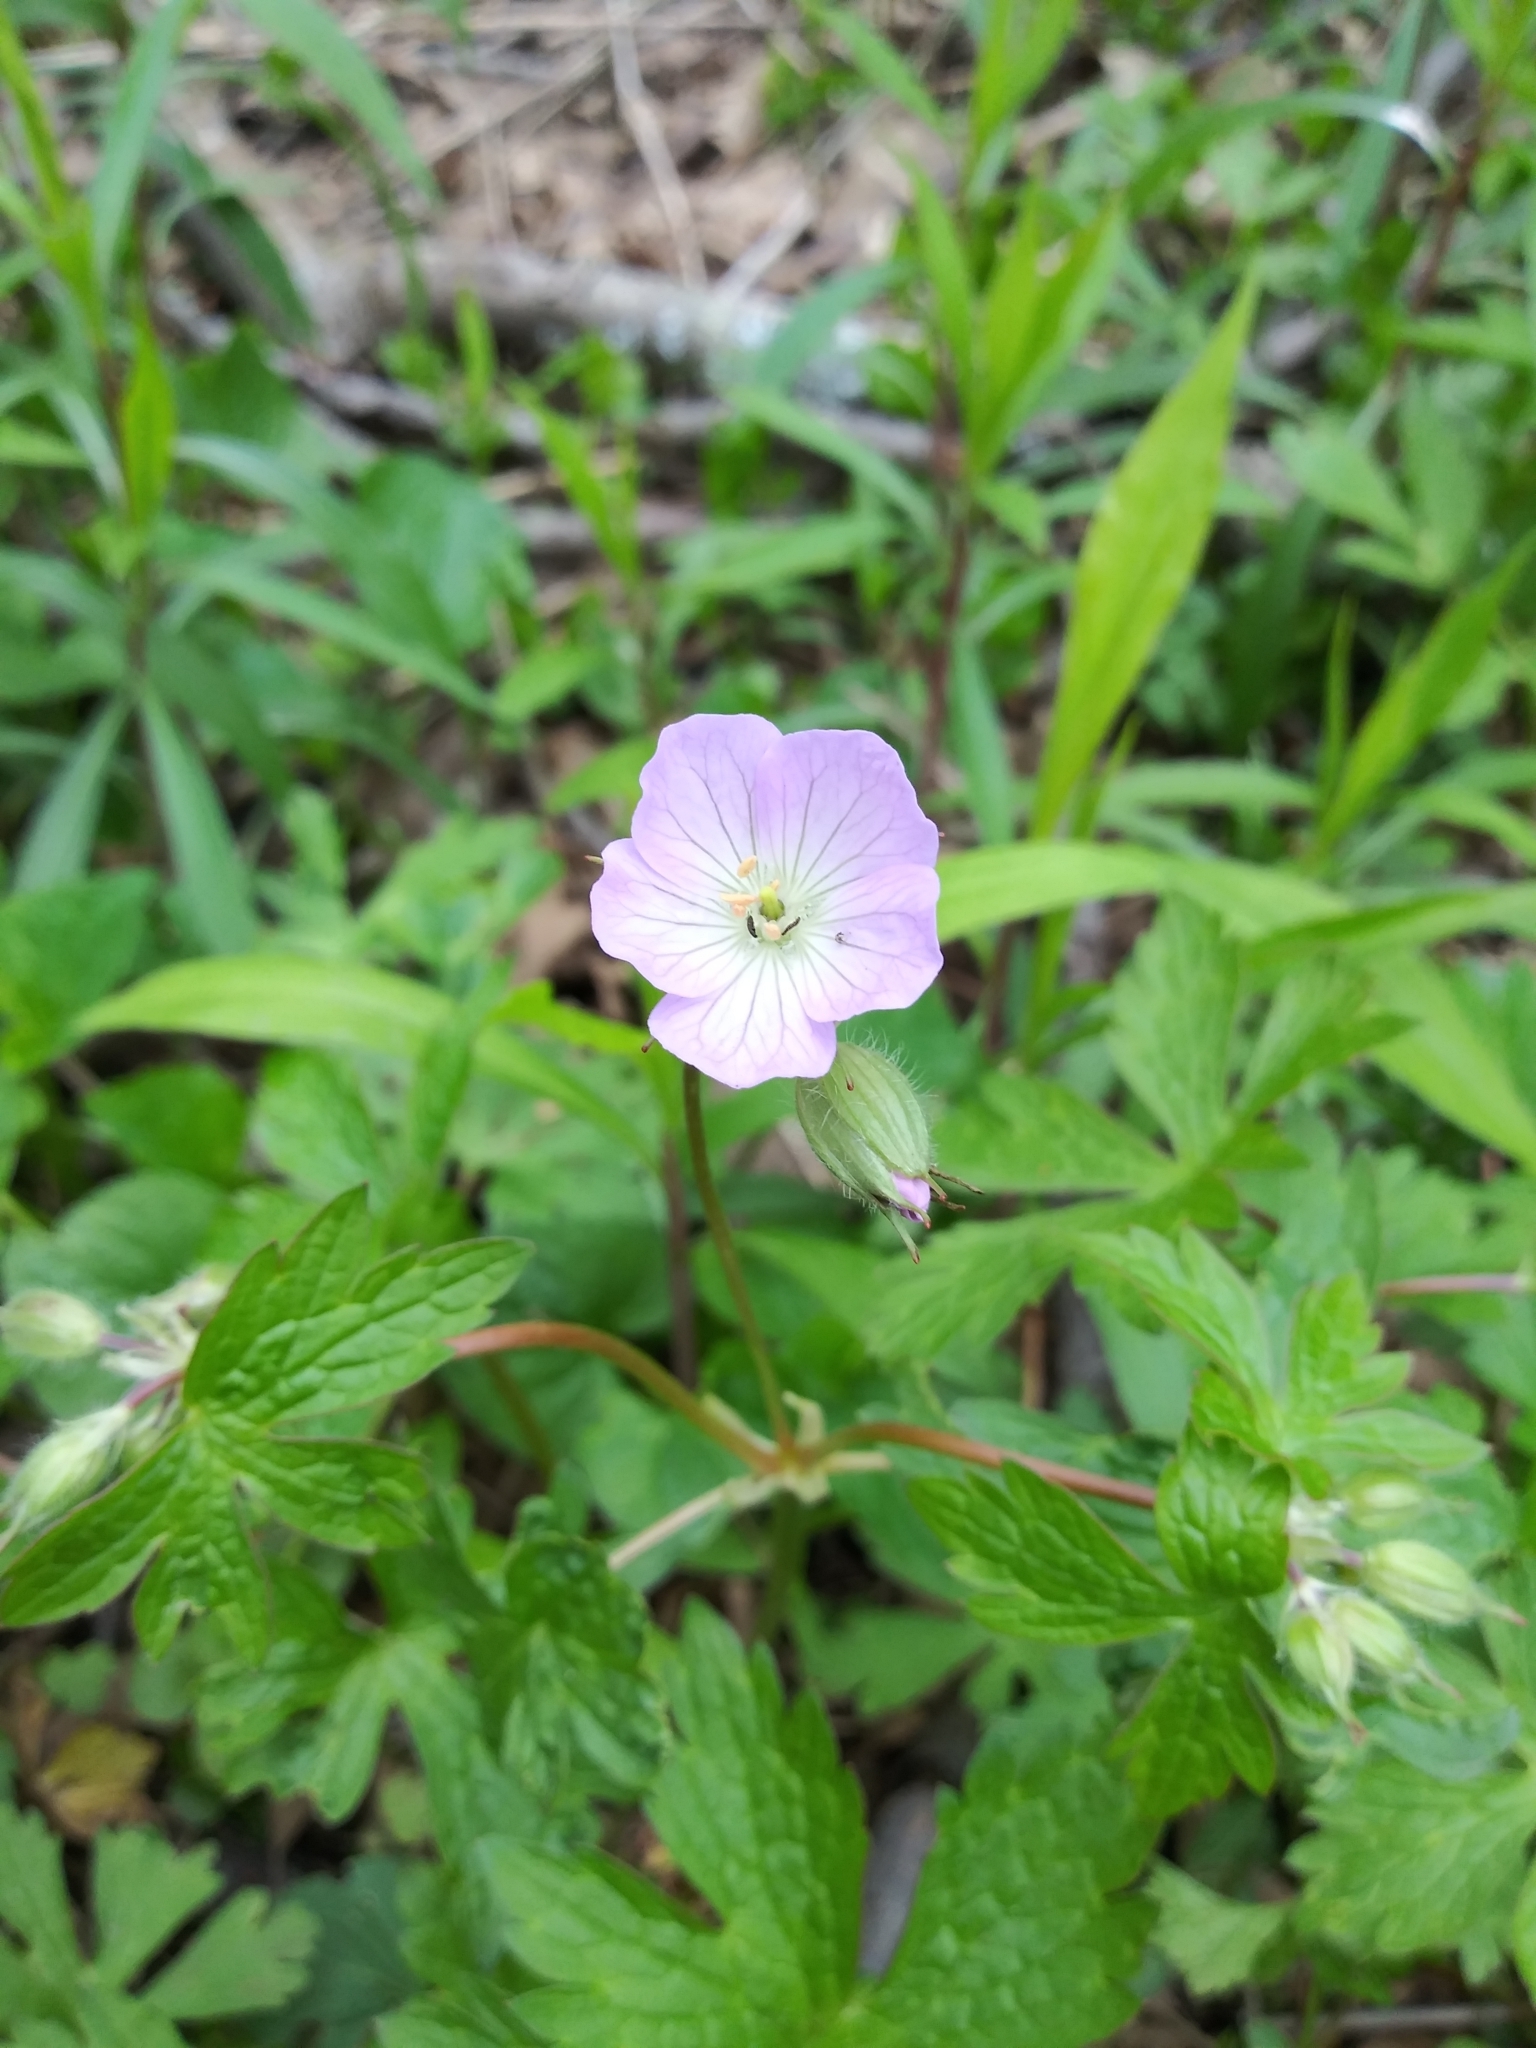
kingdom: Plantae
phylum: Tracheophyta
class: Magnoliopsida
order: Geraniales
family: Geraniaceae
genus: Geranium
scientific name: Geranium maculatum
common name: Spotted geranium
